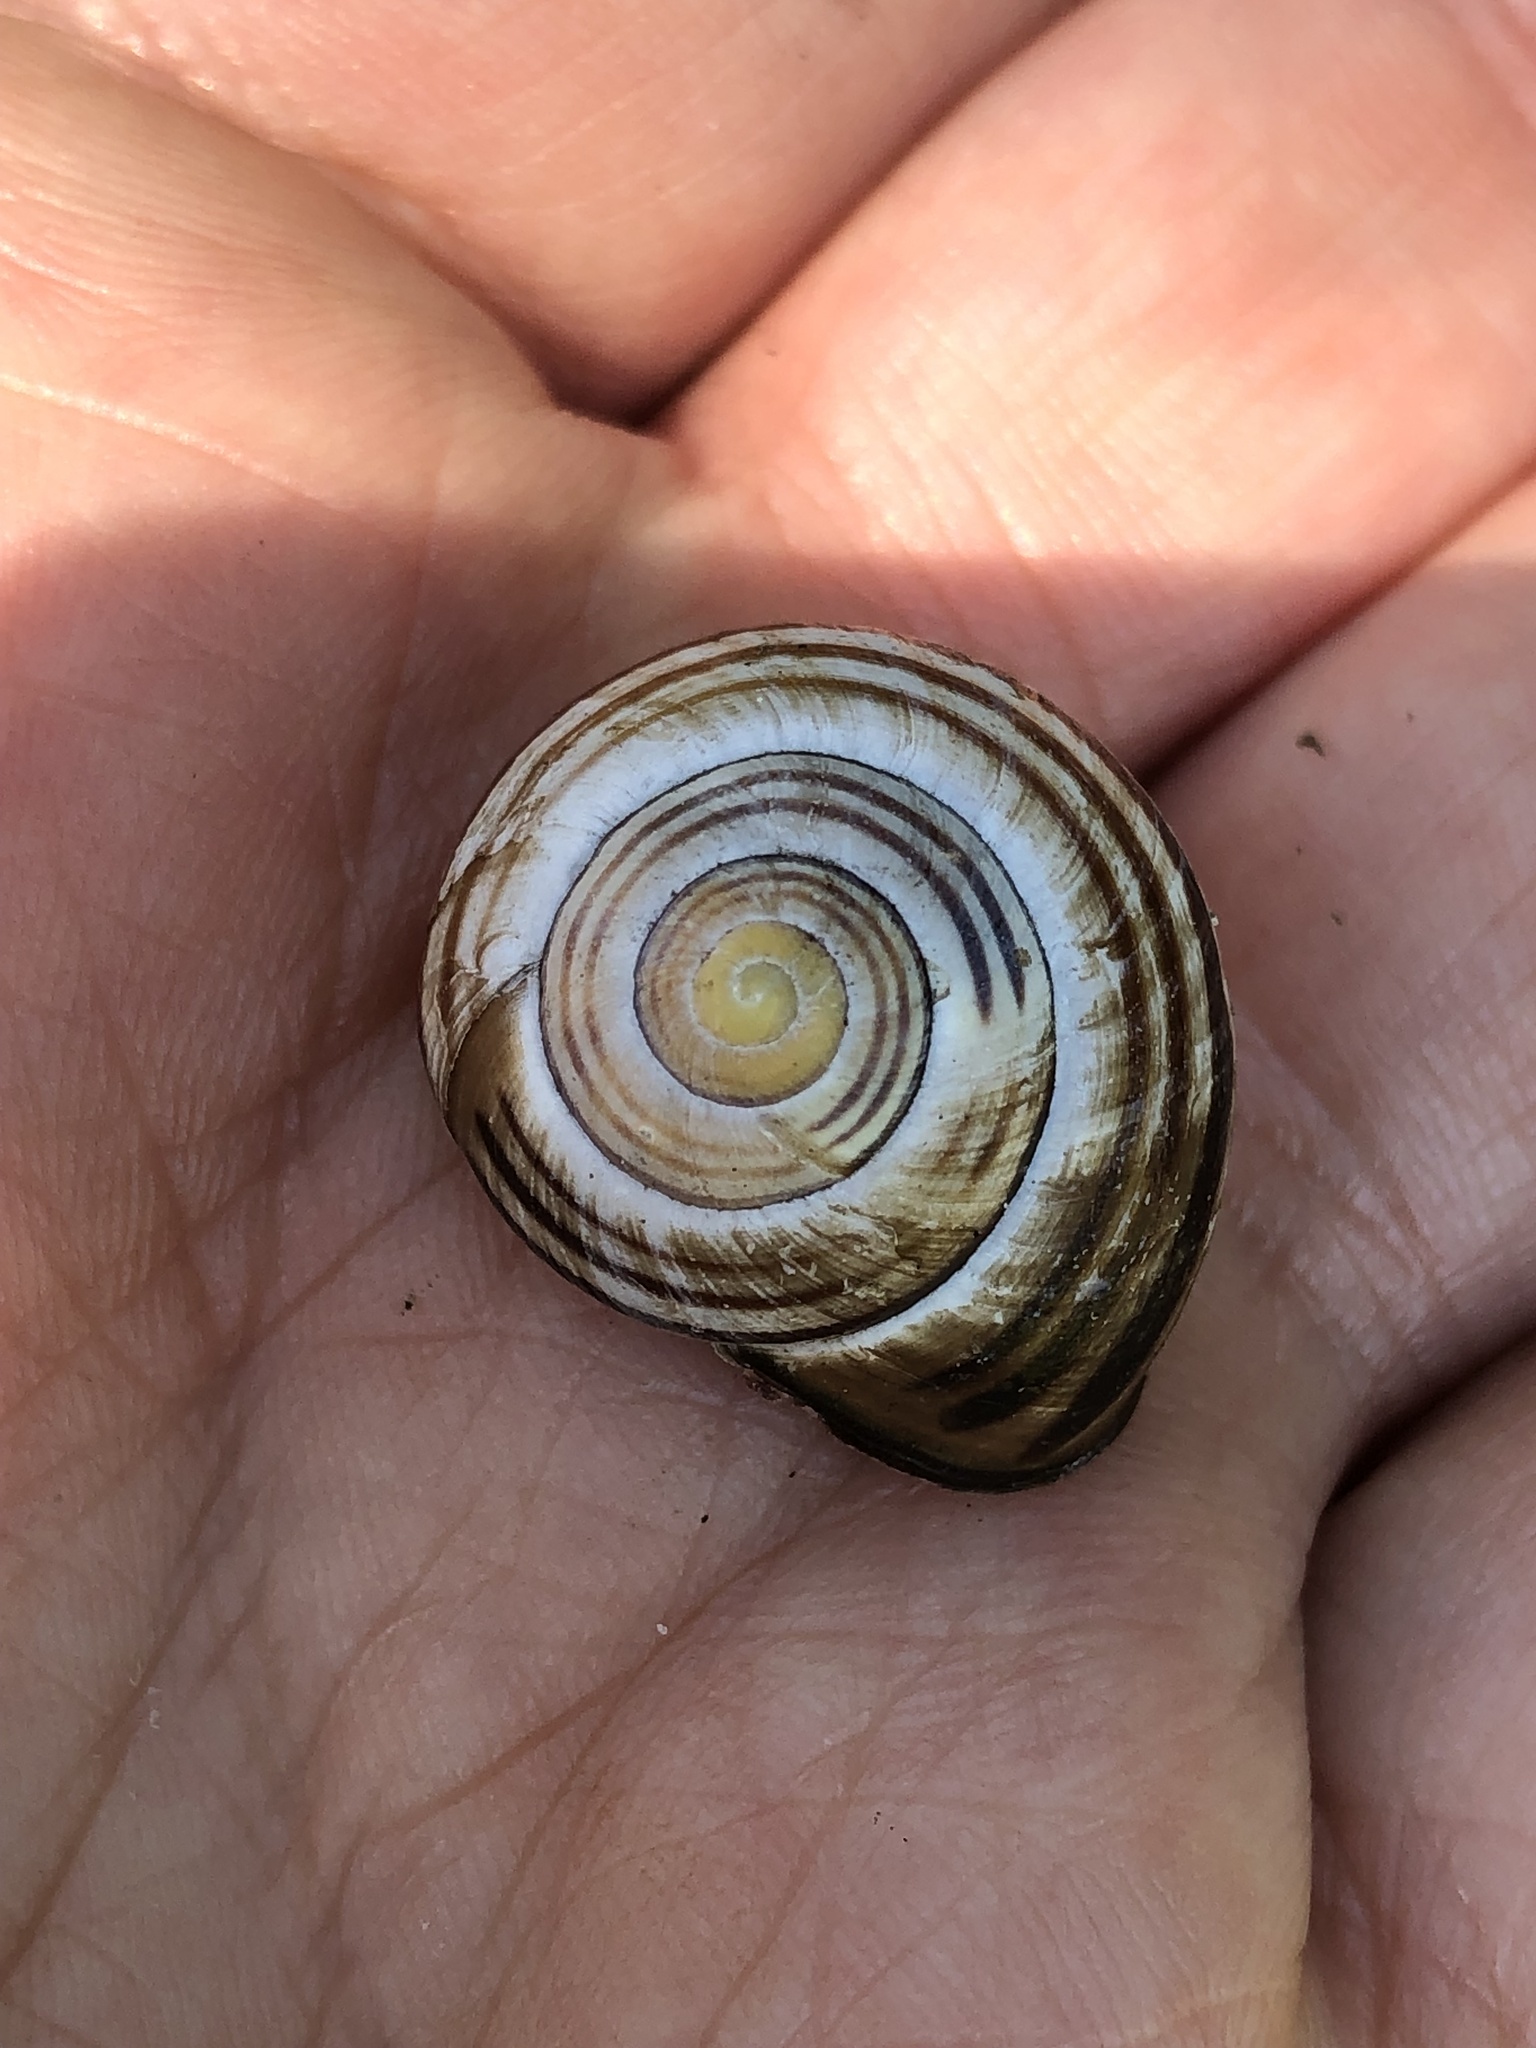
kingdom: Animalia
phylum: Mollusca
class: Gastropoda
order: Stylommatophora
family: Helicidae
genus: Cepaea
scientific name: Cepaea nemoralis
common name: Grovesnail
